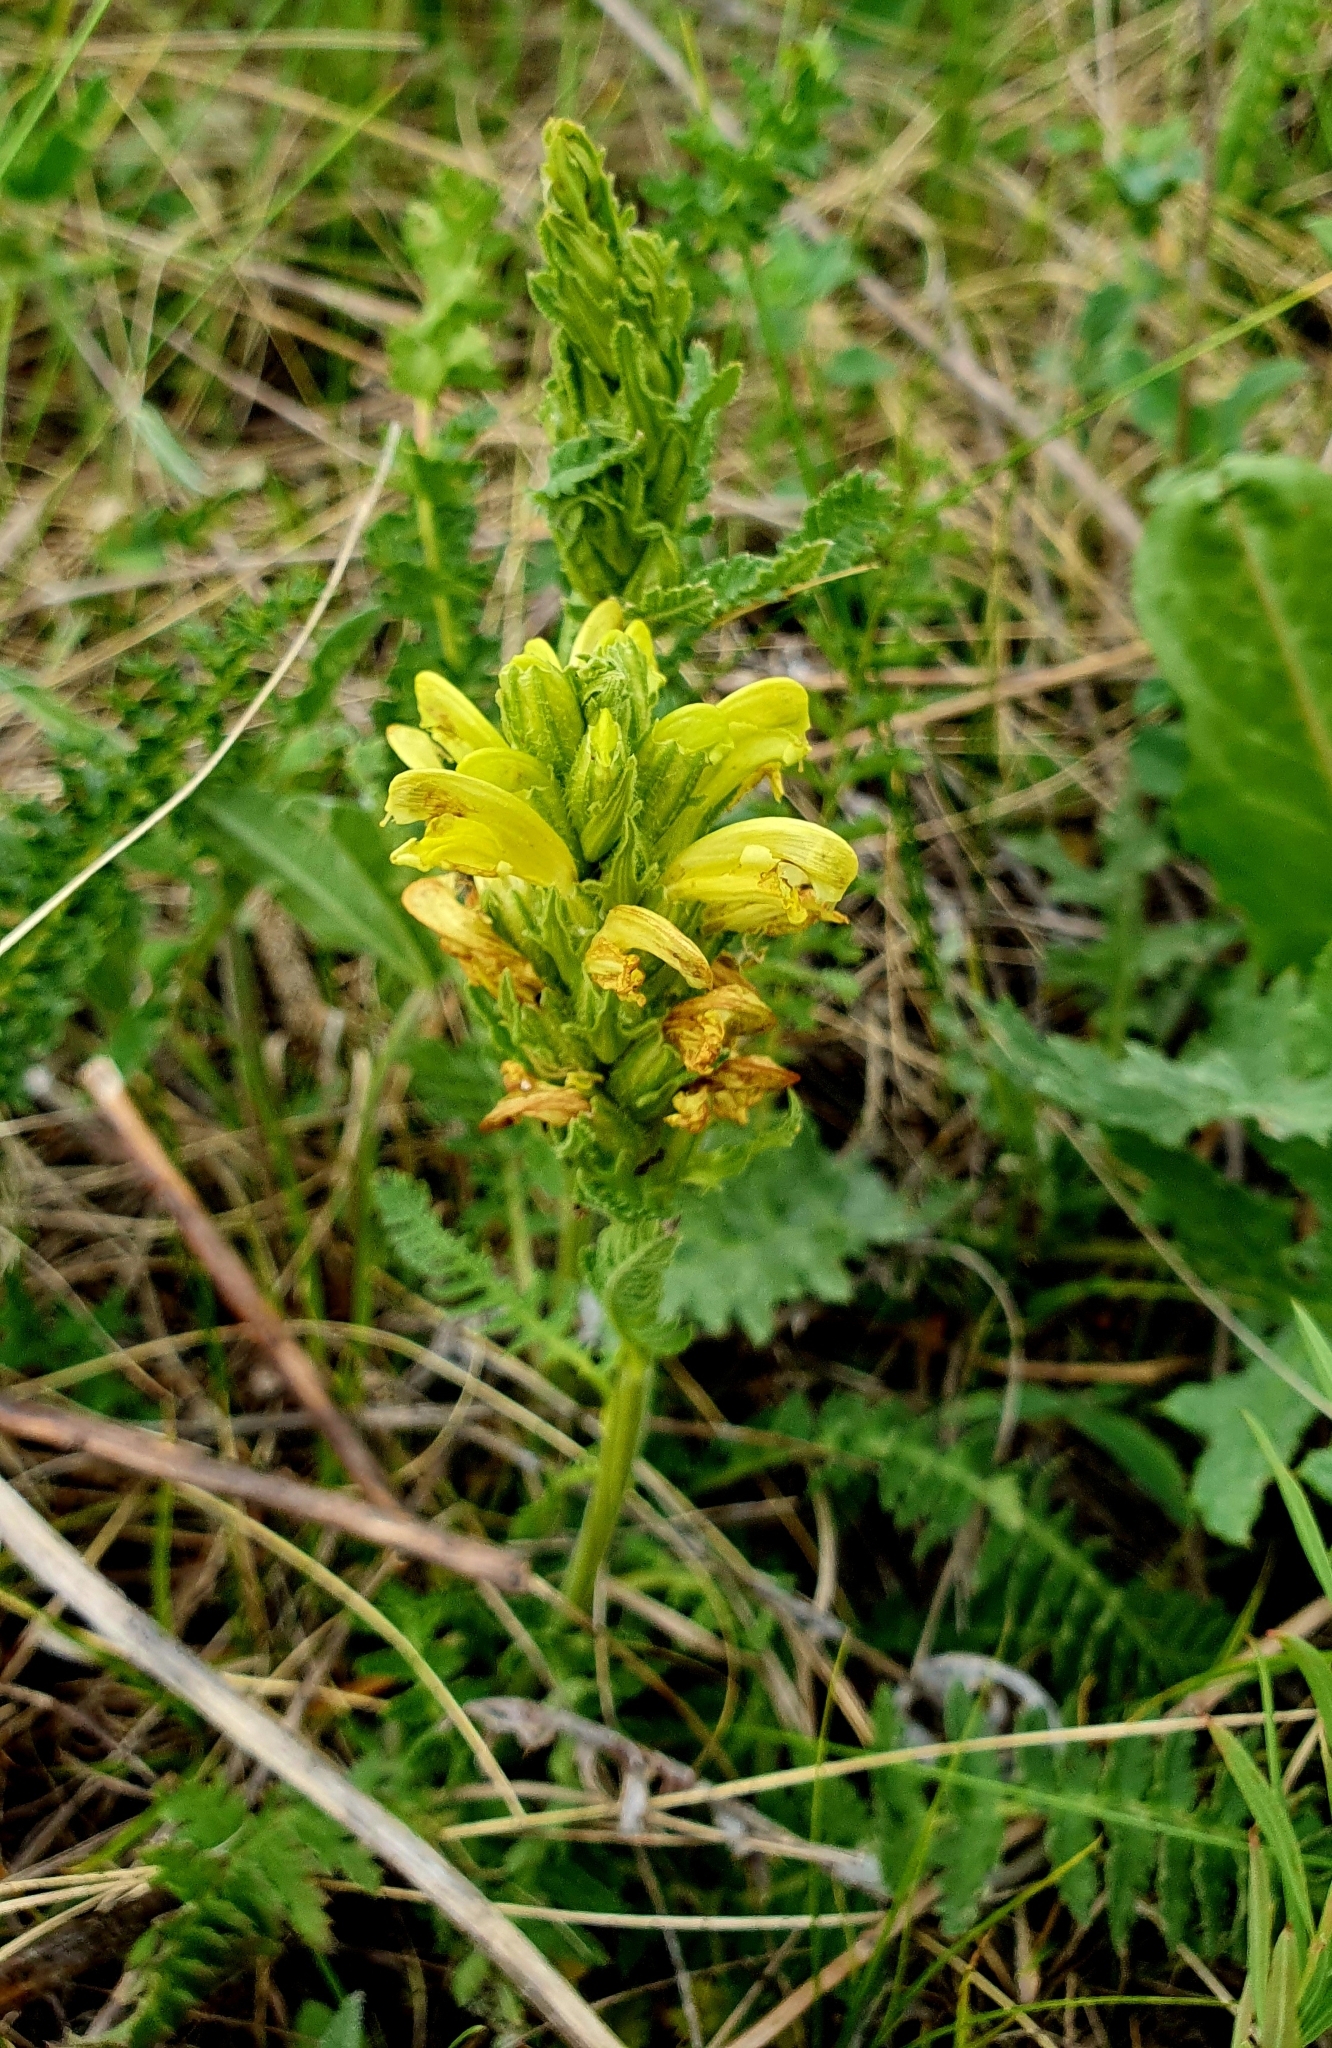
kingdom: Plantae
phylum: Tracheophyta
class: Magnoliopsida
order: Lamiales
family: Orobanchaceae
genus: Pedicularis
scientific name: Pedicularis kaufmannii
